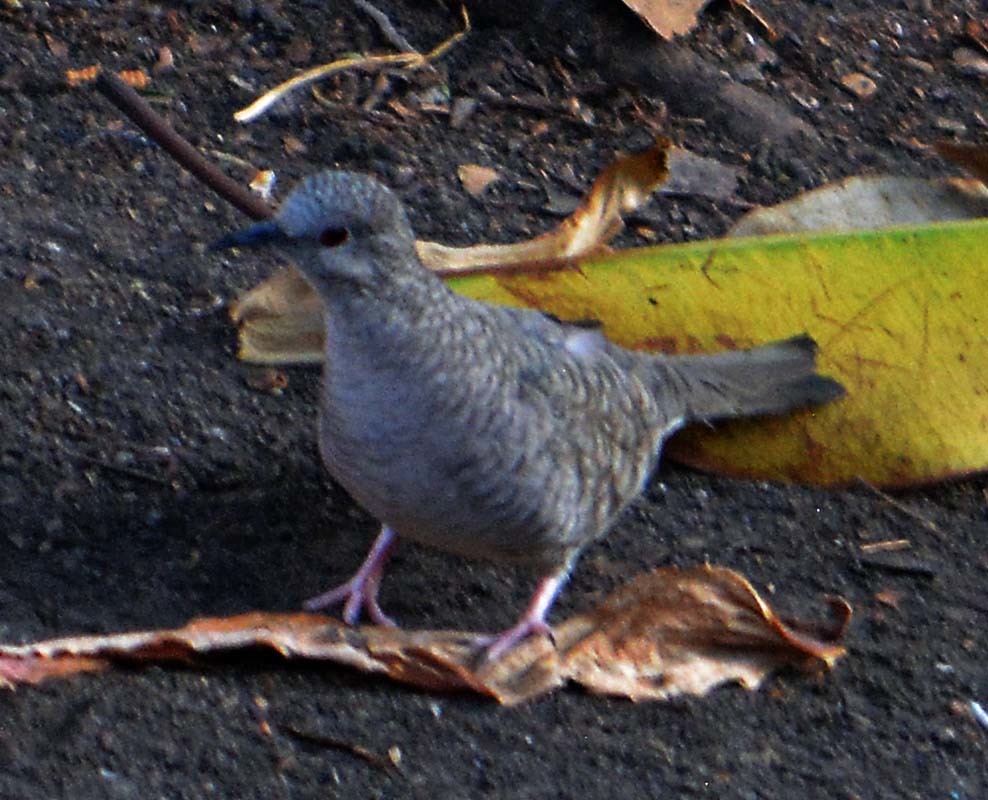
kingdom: Animalia
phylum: Chordata
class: Aves
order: Columbiformes
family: Columbidae
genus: Columbina
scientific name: Columbina inca
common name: Inca dove
